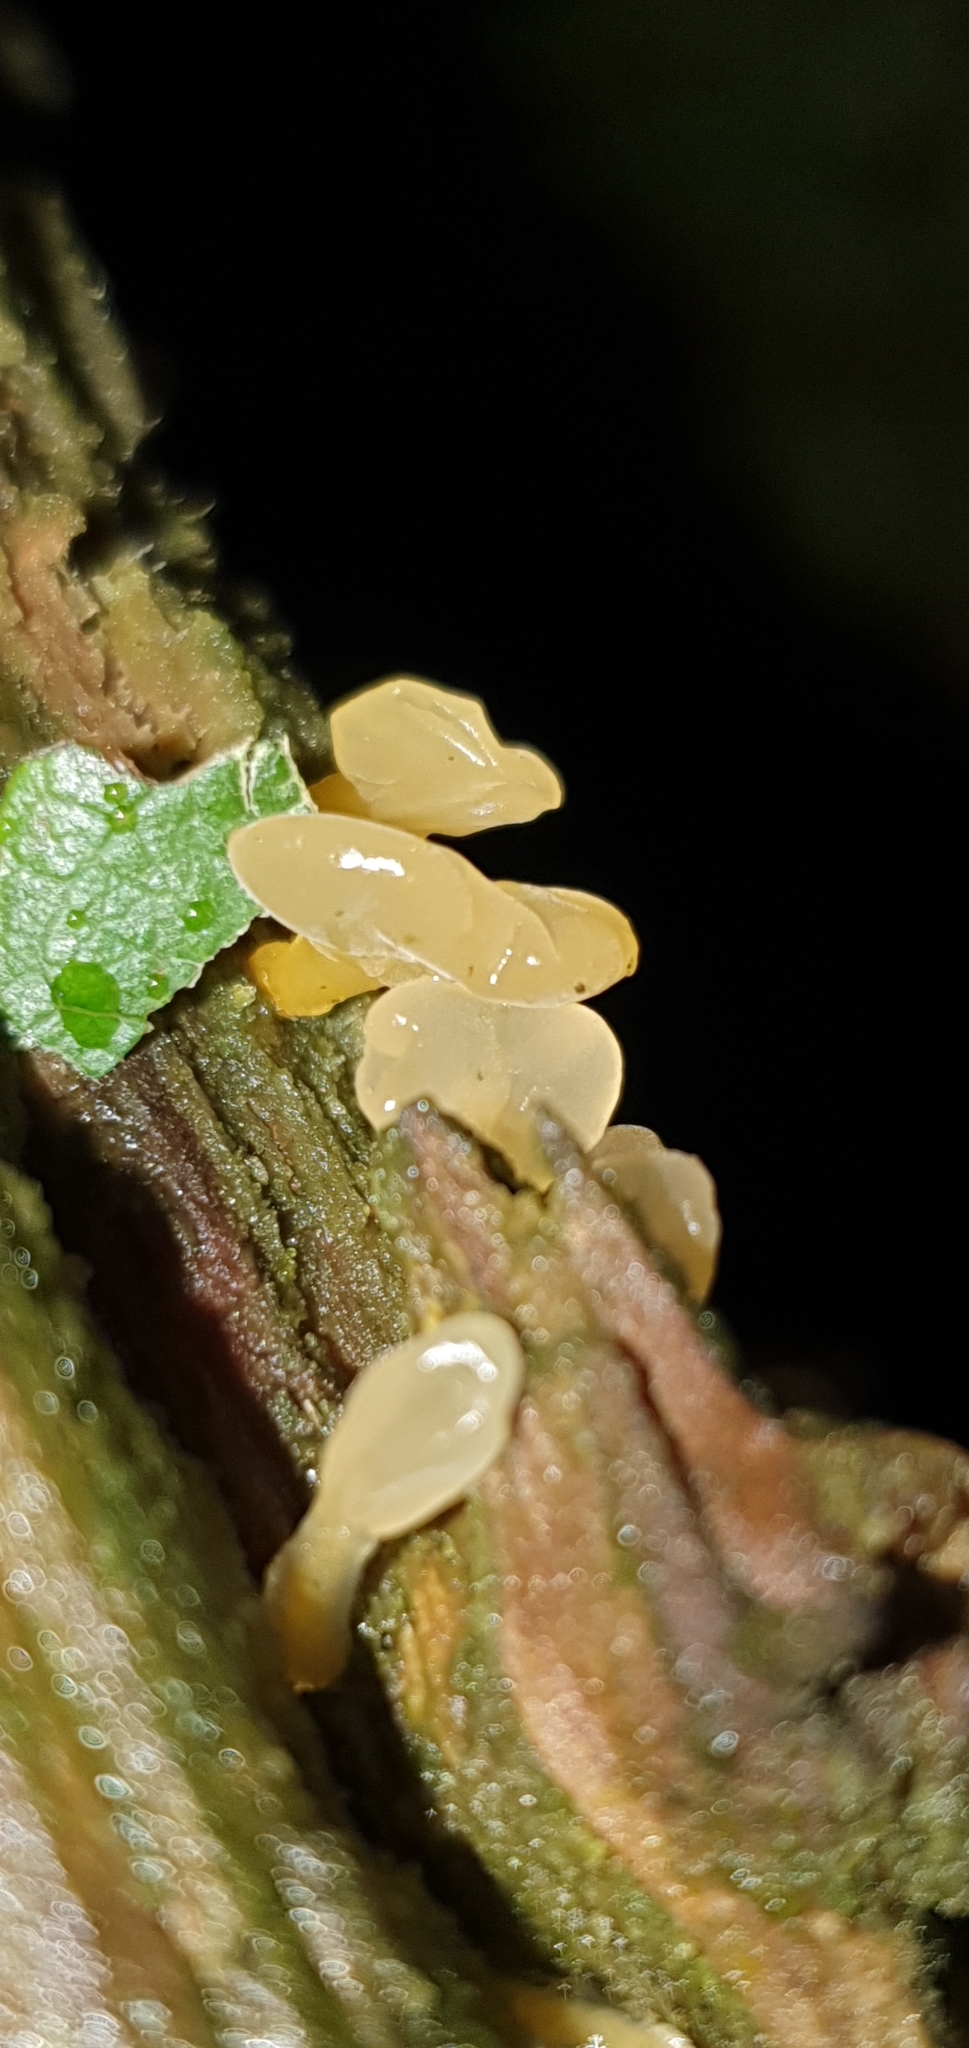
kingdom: Fungi
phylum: Basidiomycota
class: Dacrymycetes
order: Dacrymycetales
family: Dacrymycetaceae
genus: Calocera
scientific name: Calocera pallidospathulata
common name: Pale stagshorn
